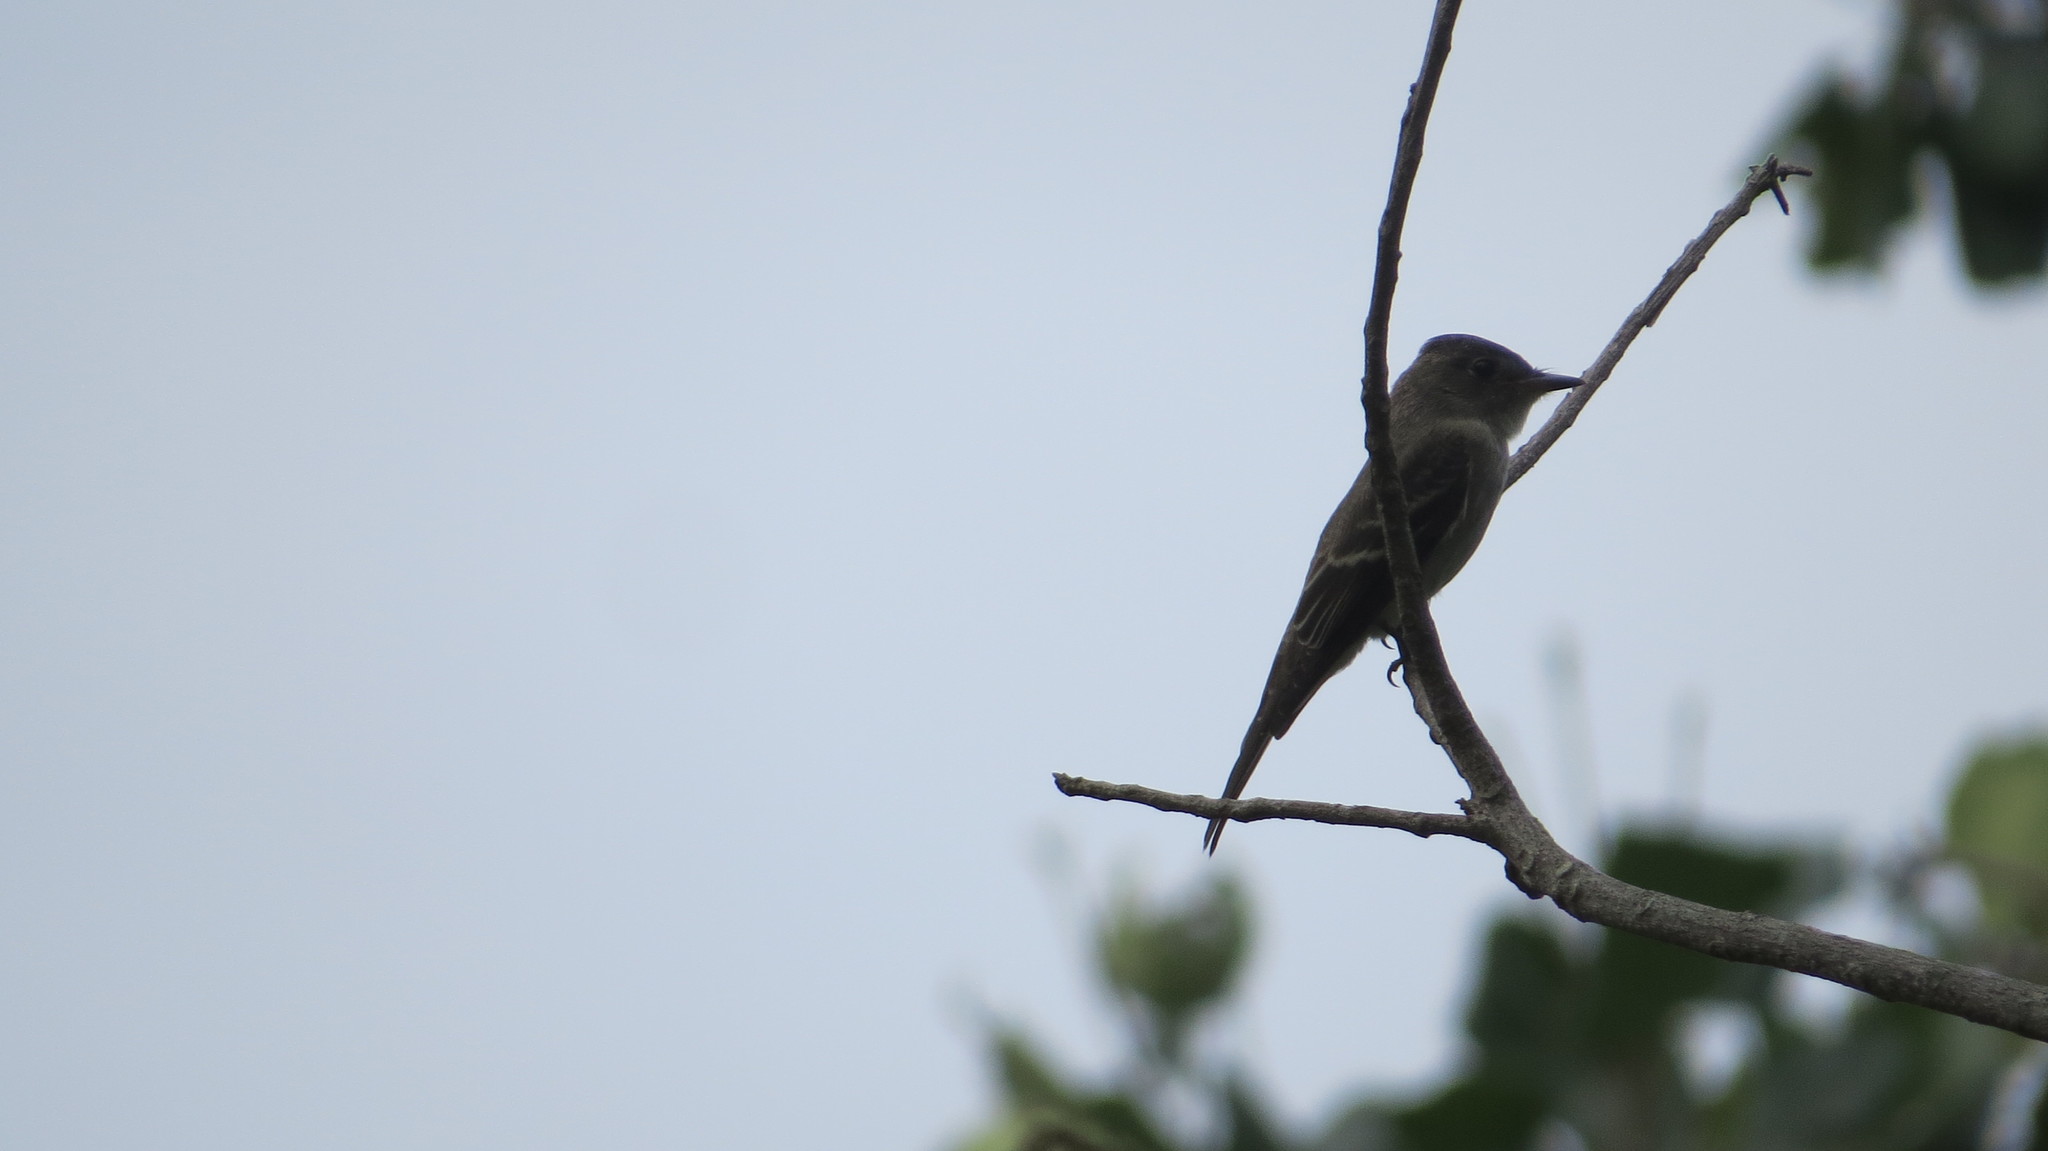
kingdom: Animalia
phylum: Chordata
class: Aves
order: Passeriformes
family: Tyrannidae
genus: Contopus
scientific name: Contopus virens
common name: Eastern wood-pewee
